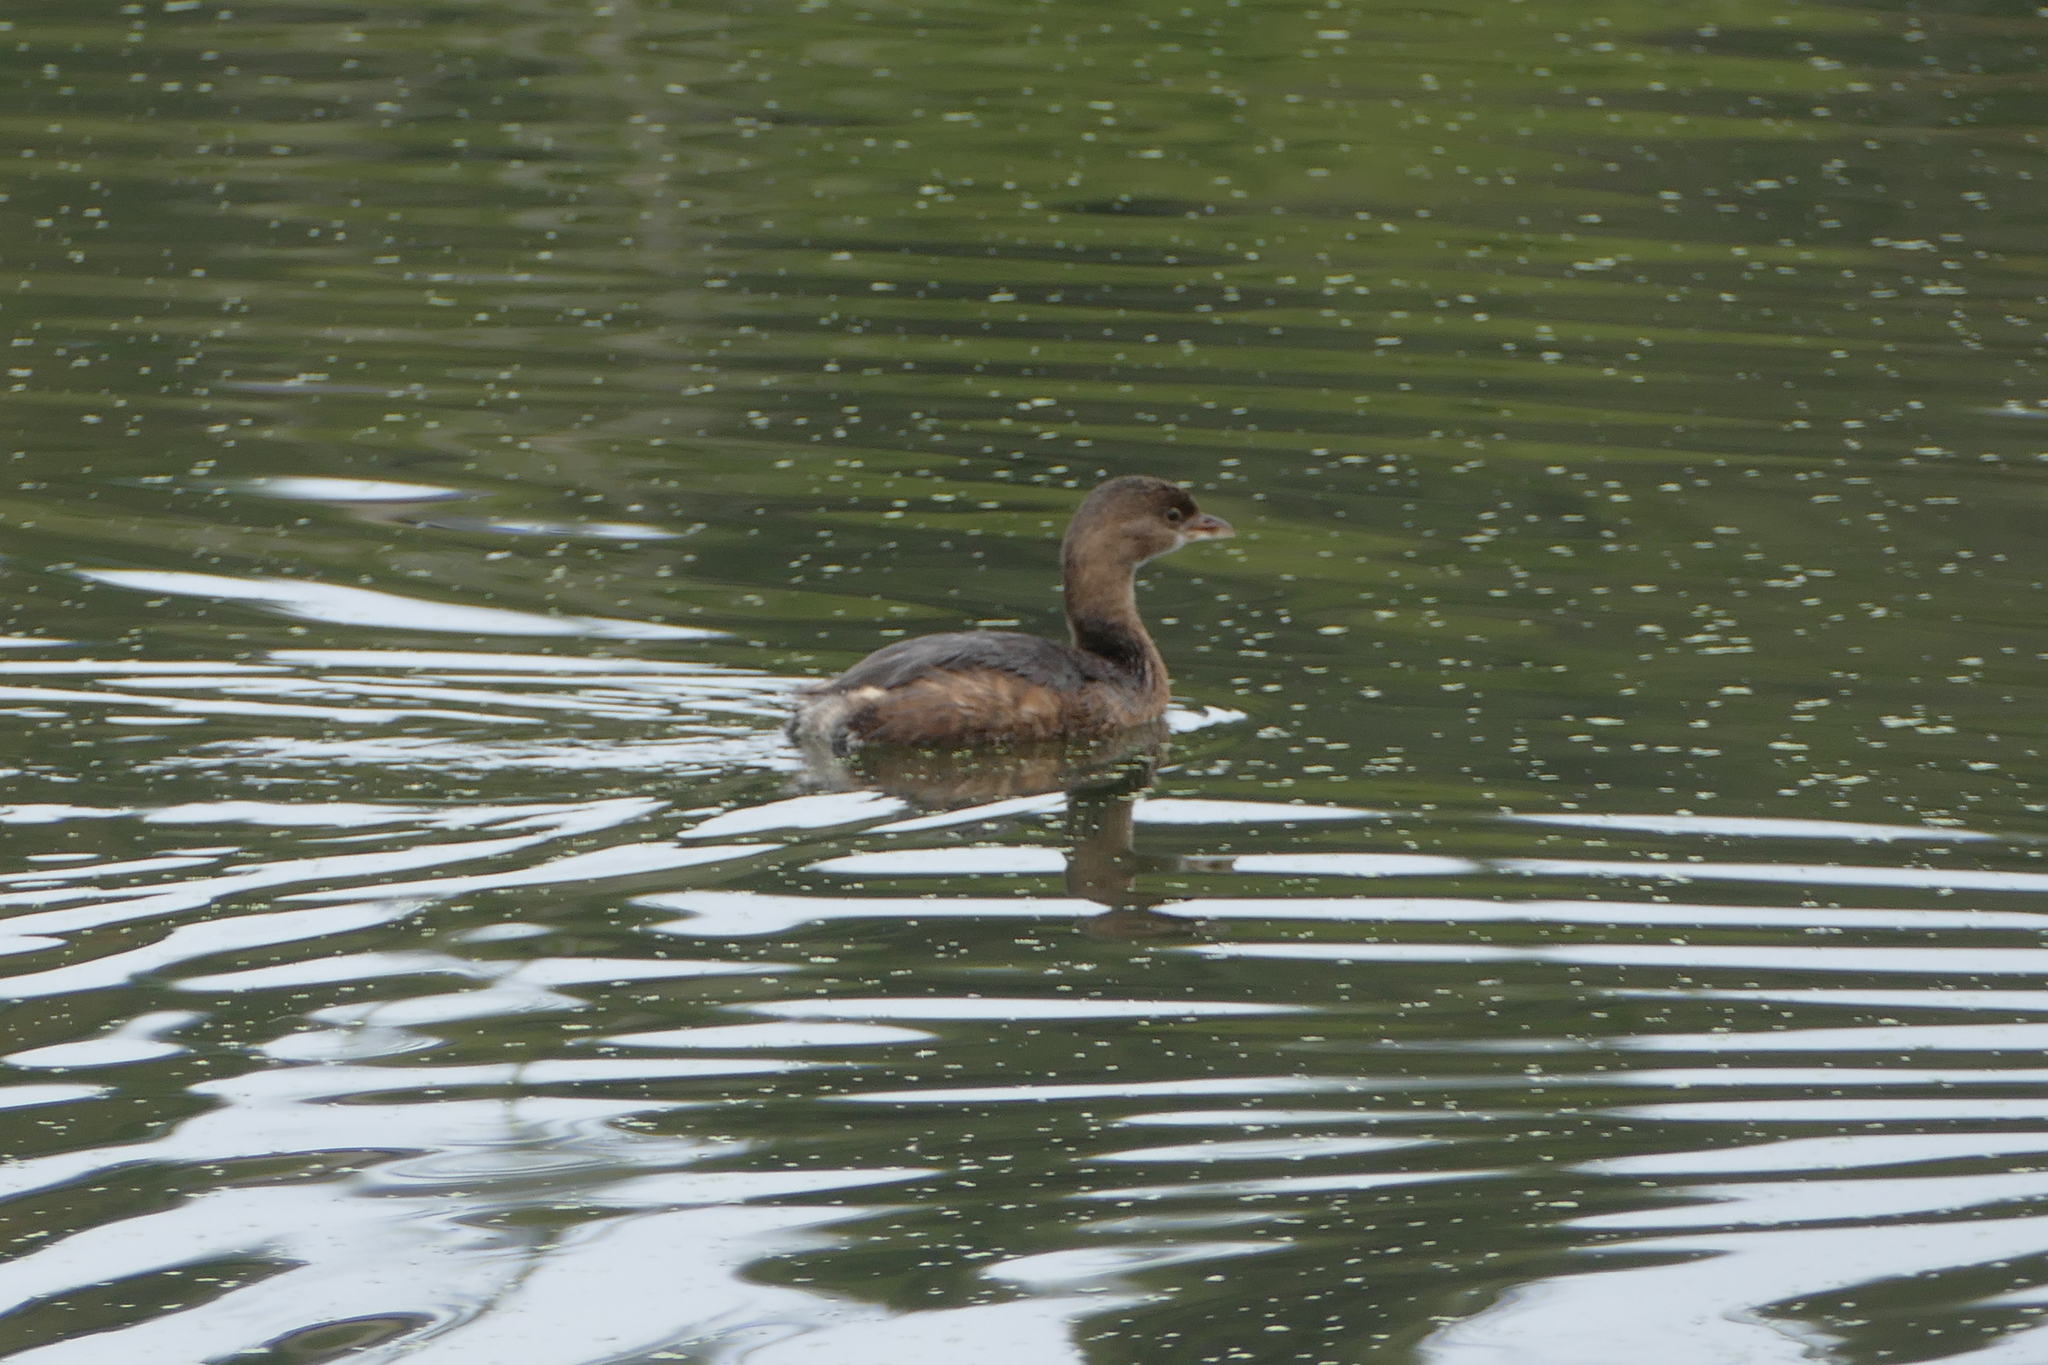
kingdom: Animalia
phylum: Chordata
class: Aves
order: Podicipediformes
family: Podicipedidae
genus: Podilymbus
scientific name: Podilymbus podiceps
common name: Pied-billed grebe
